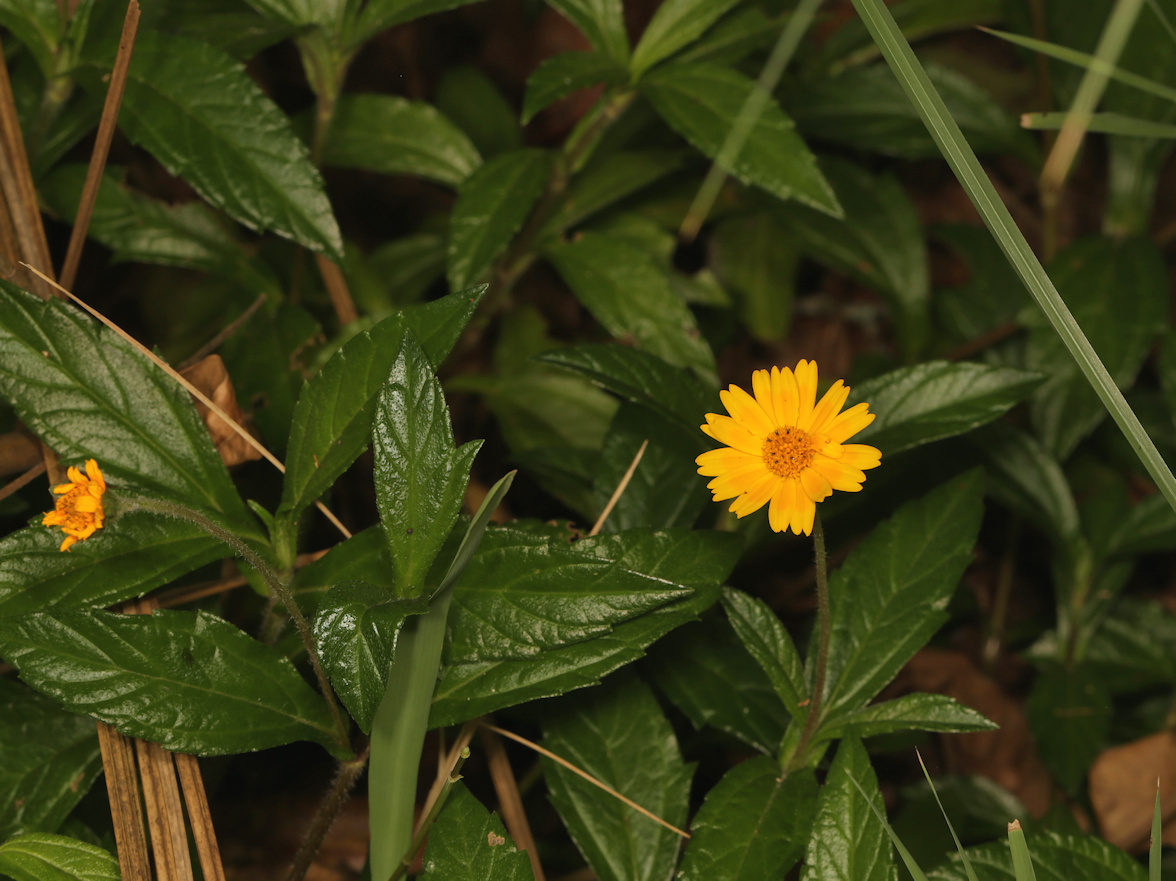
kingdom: Plantae
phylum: Tracheophyta
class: Magnoliopsida
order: Asterales
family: Asteraceae
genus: Sphagneticola
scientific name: Sphagneticola trilobata
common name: Bay biscayne creeping-oxeye
